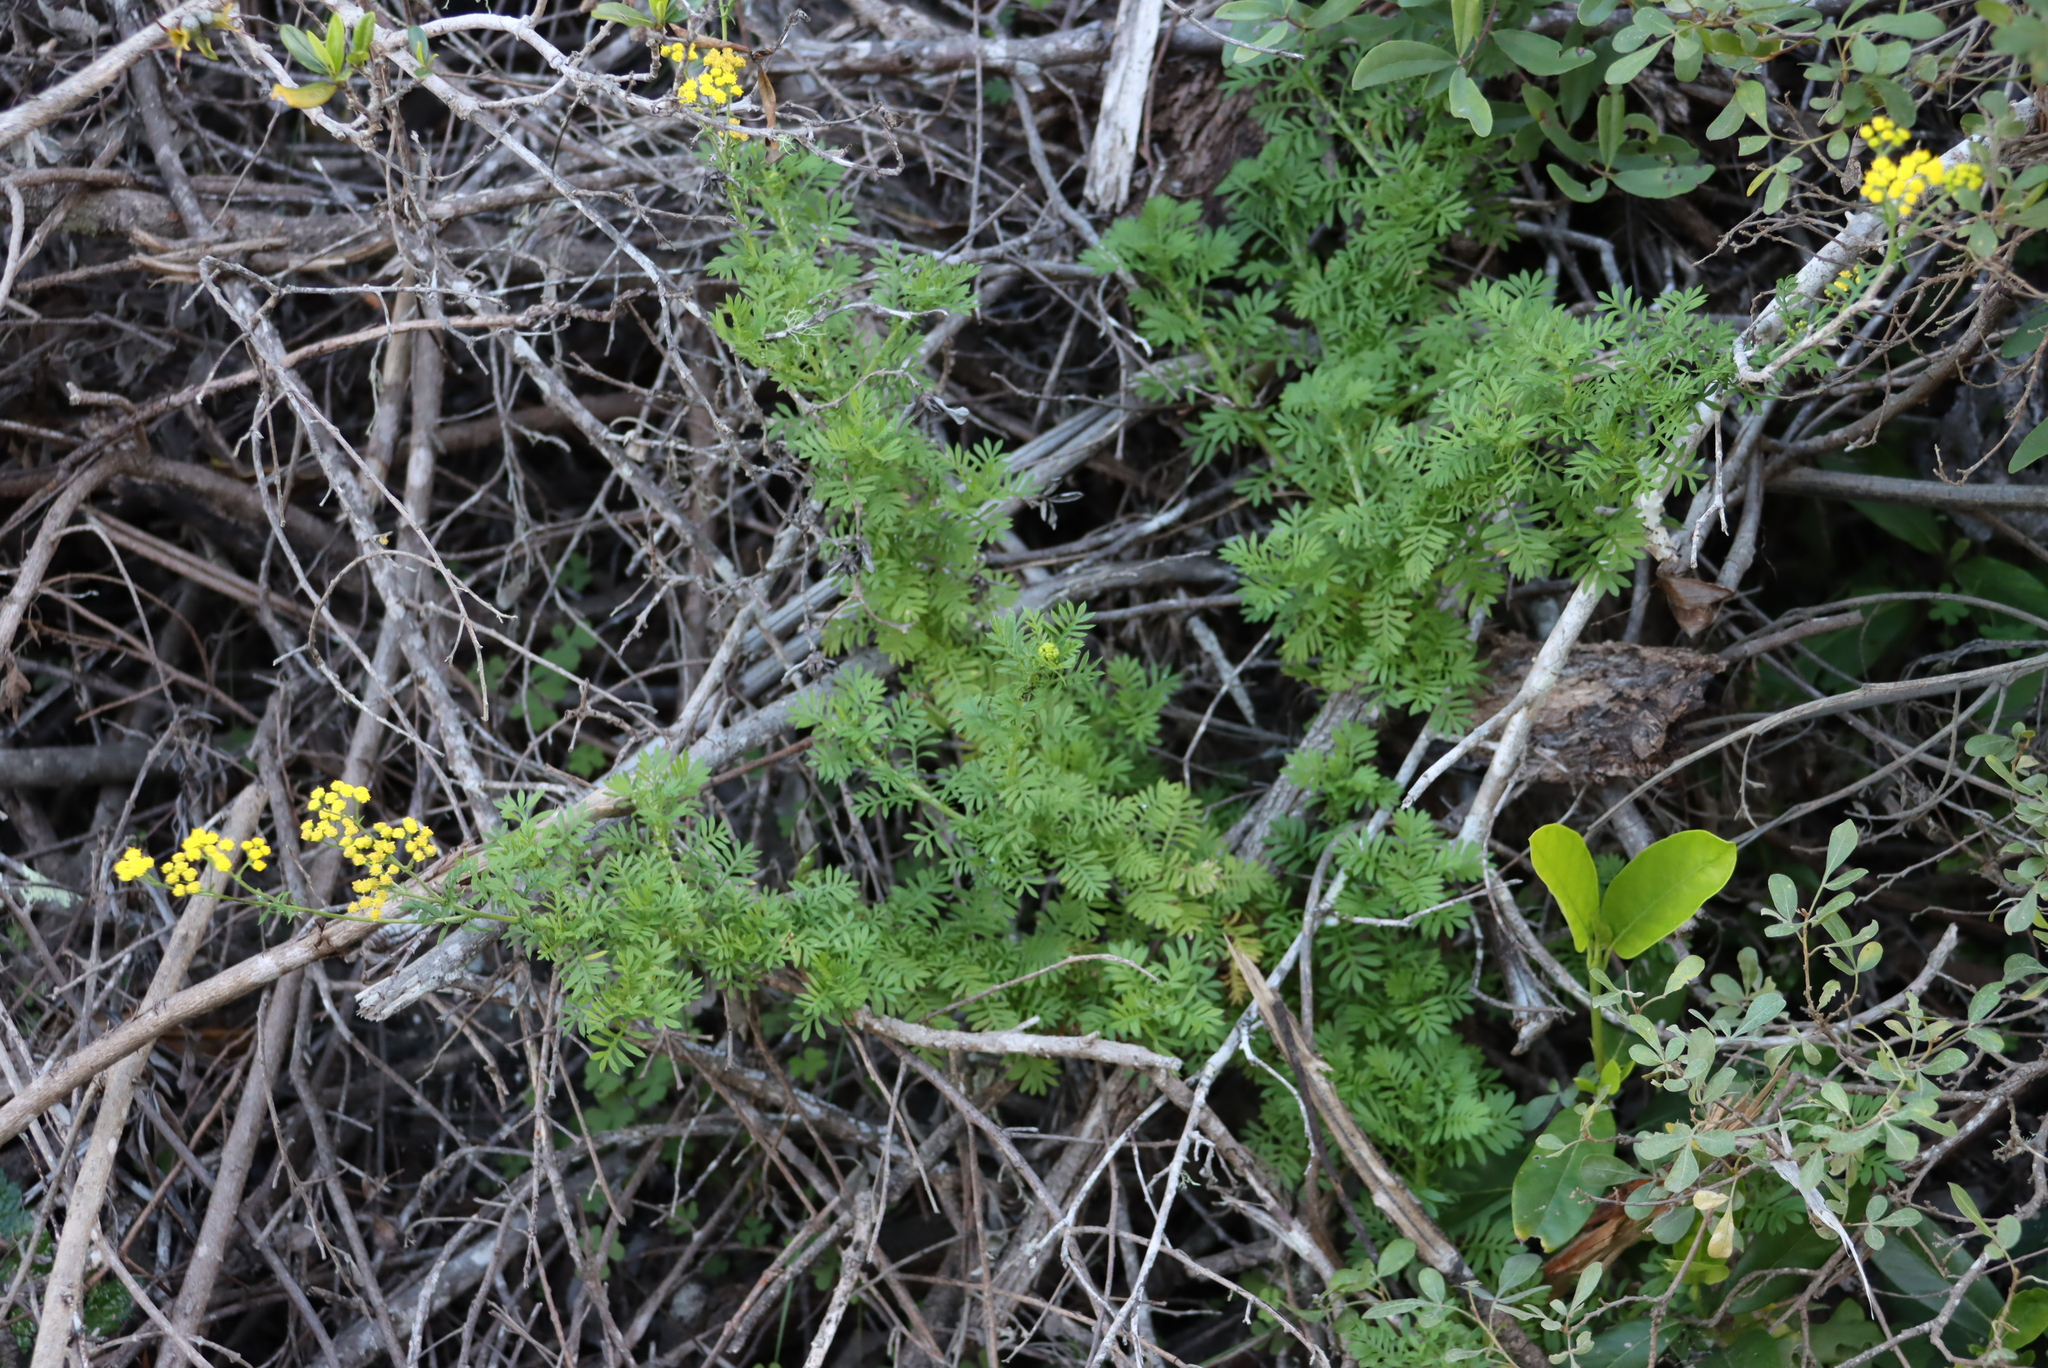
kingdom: Plantae
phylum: Tracheophyta
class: Magnoliopsida
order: Asterales
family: Asteraceae
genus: Hippia
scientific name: Hippia frutescens
